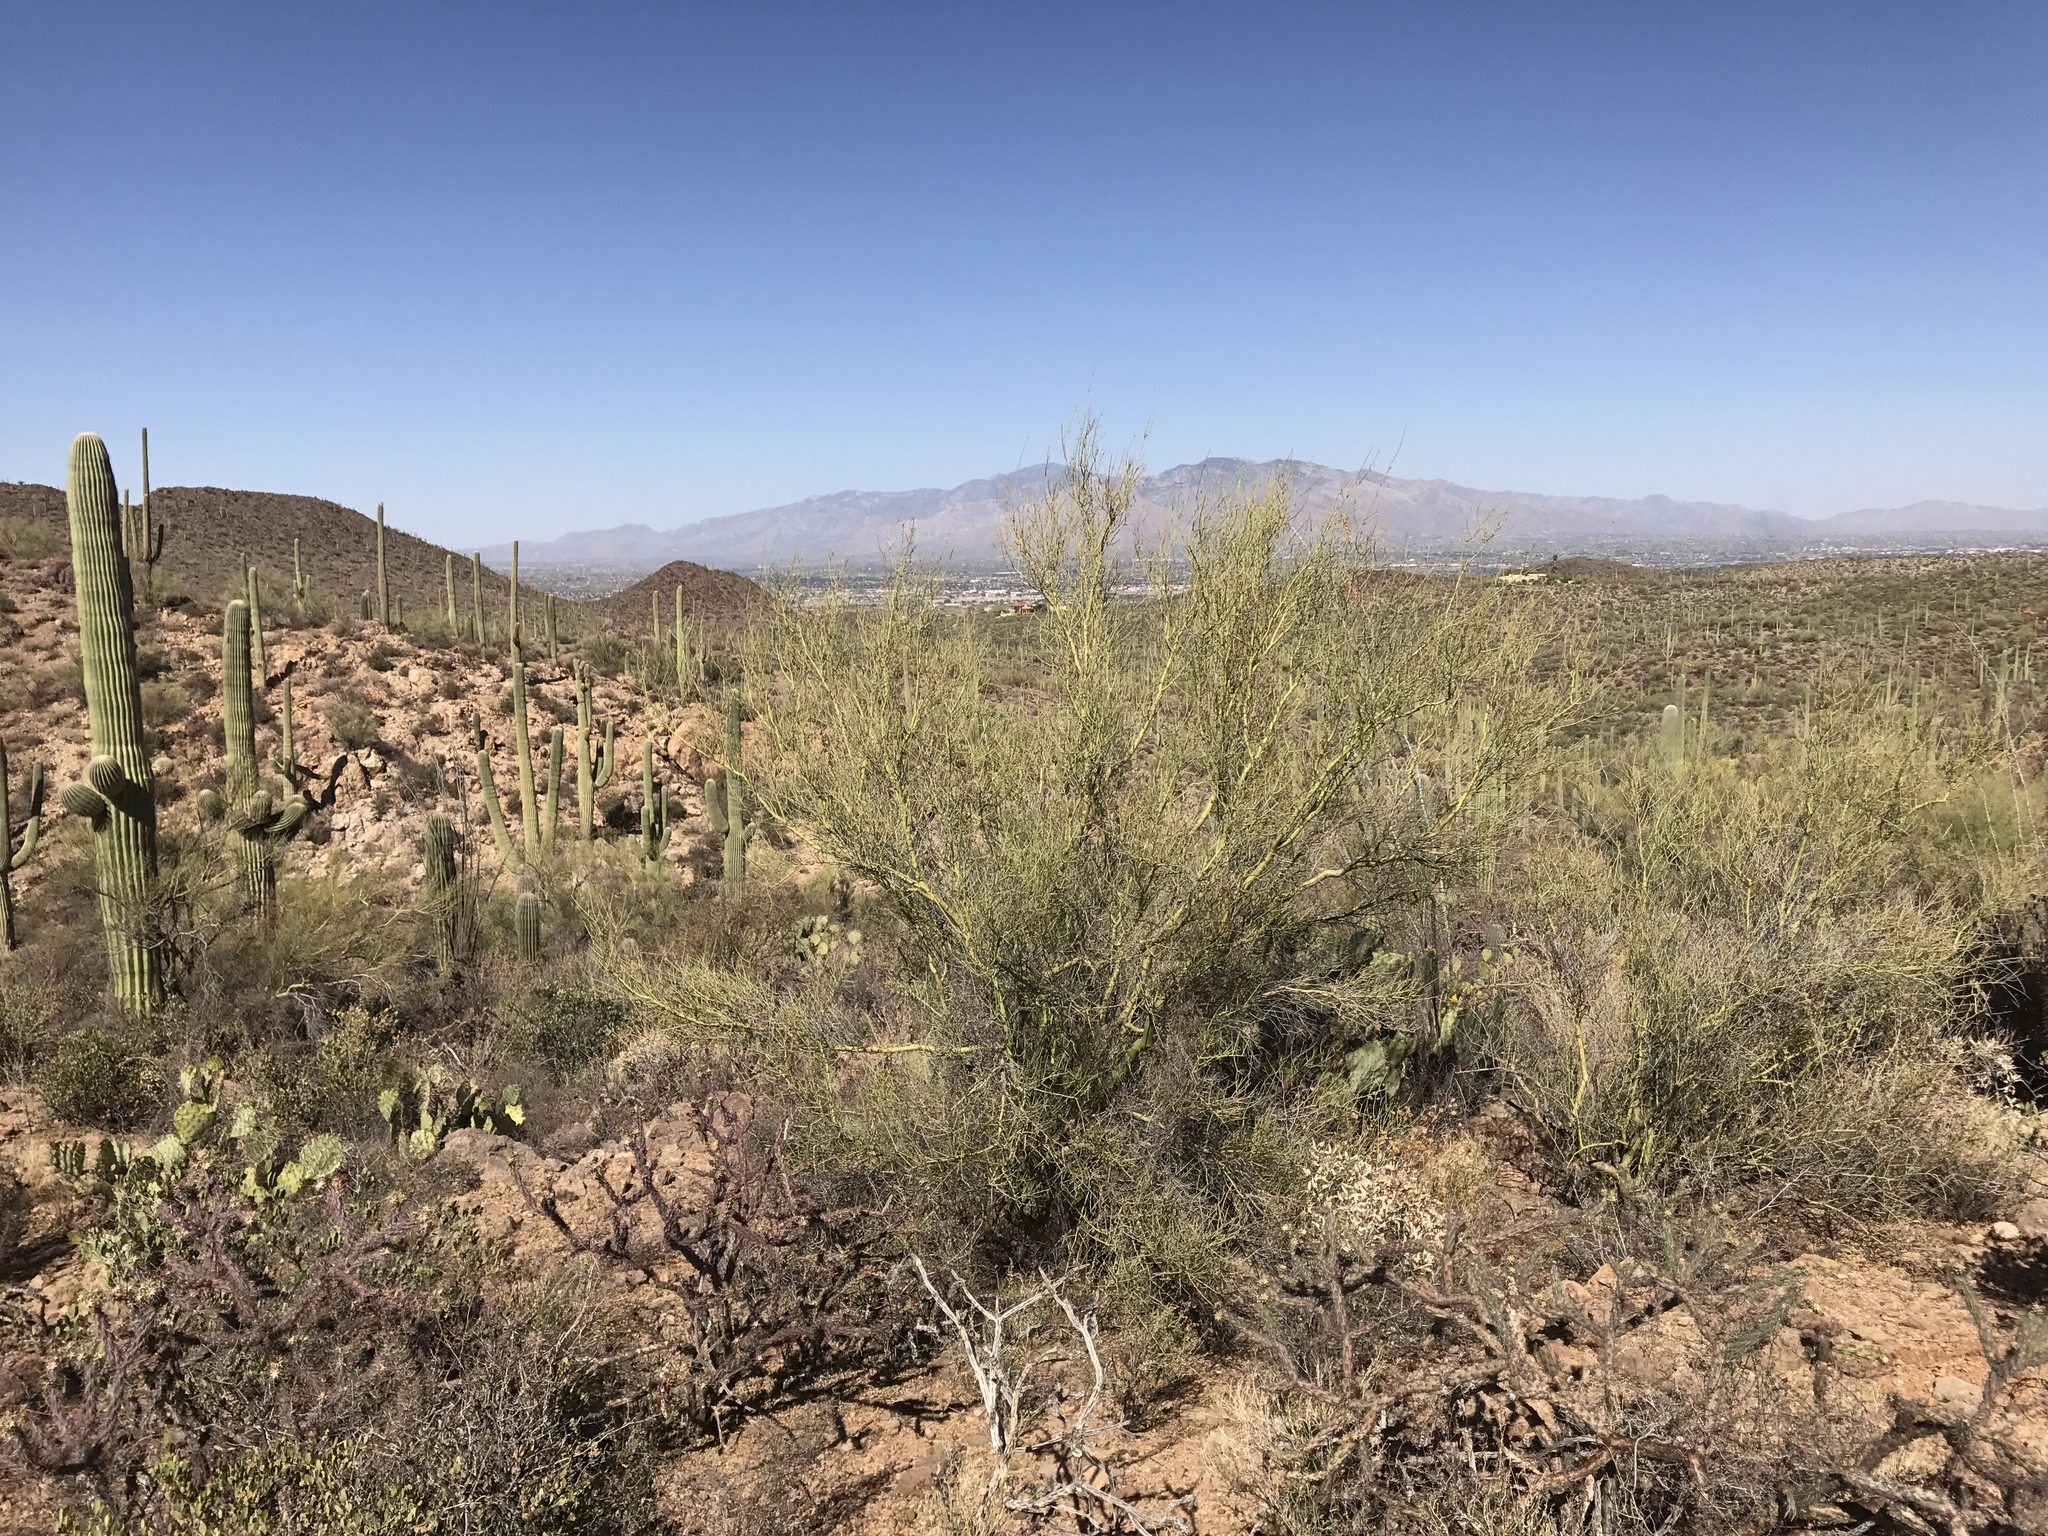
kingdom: Plantae
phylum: Tracheophyta
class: Magnoliopsida
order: Fabales
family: Fabaceae
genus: Parkinsonia
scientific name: Parkinsonia microphylla
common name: Yellow paloverde
